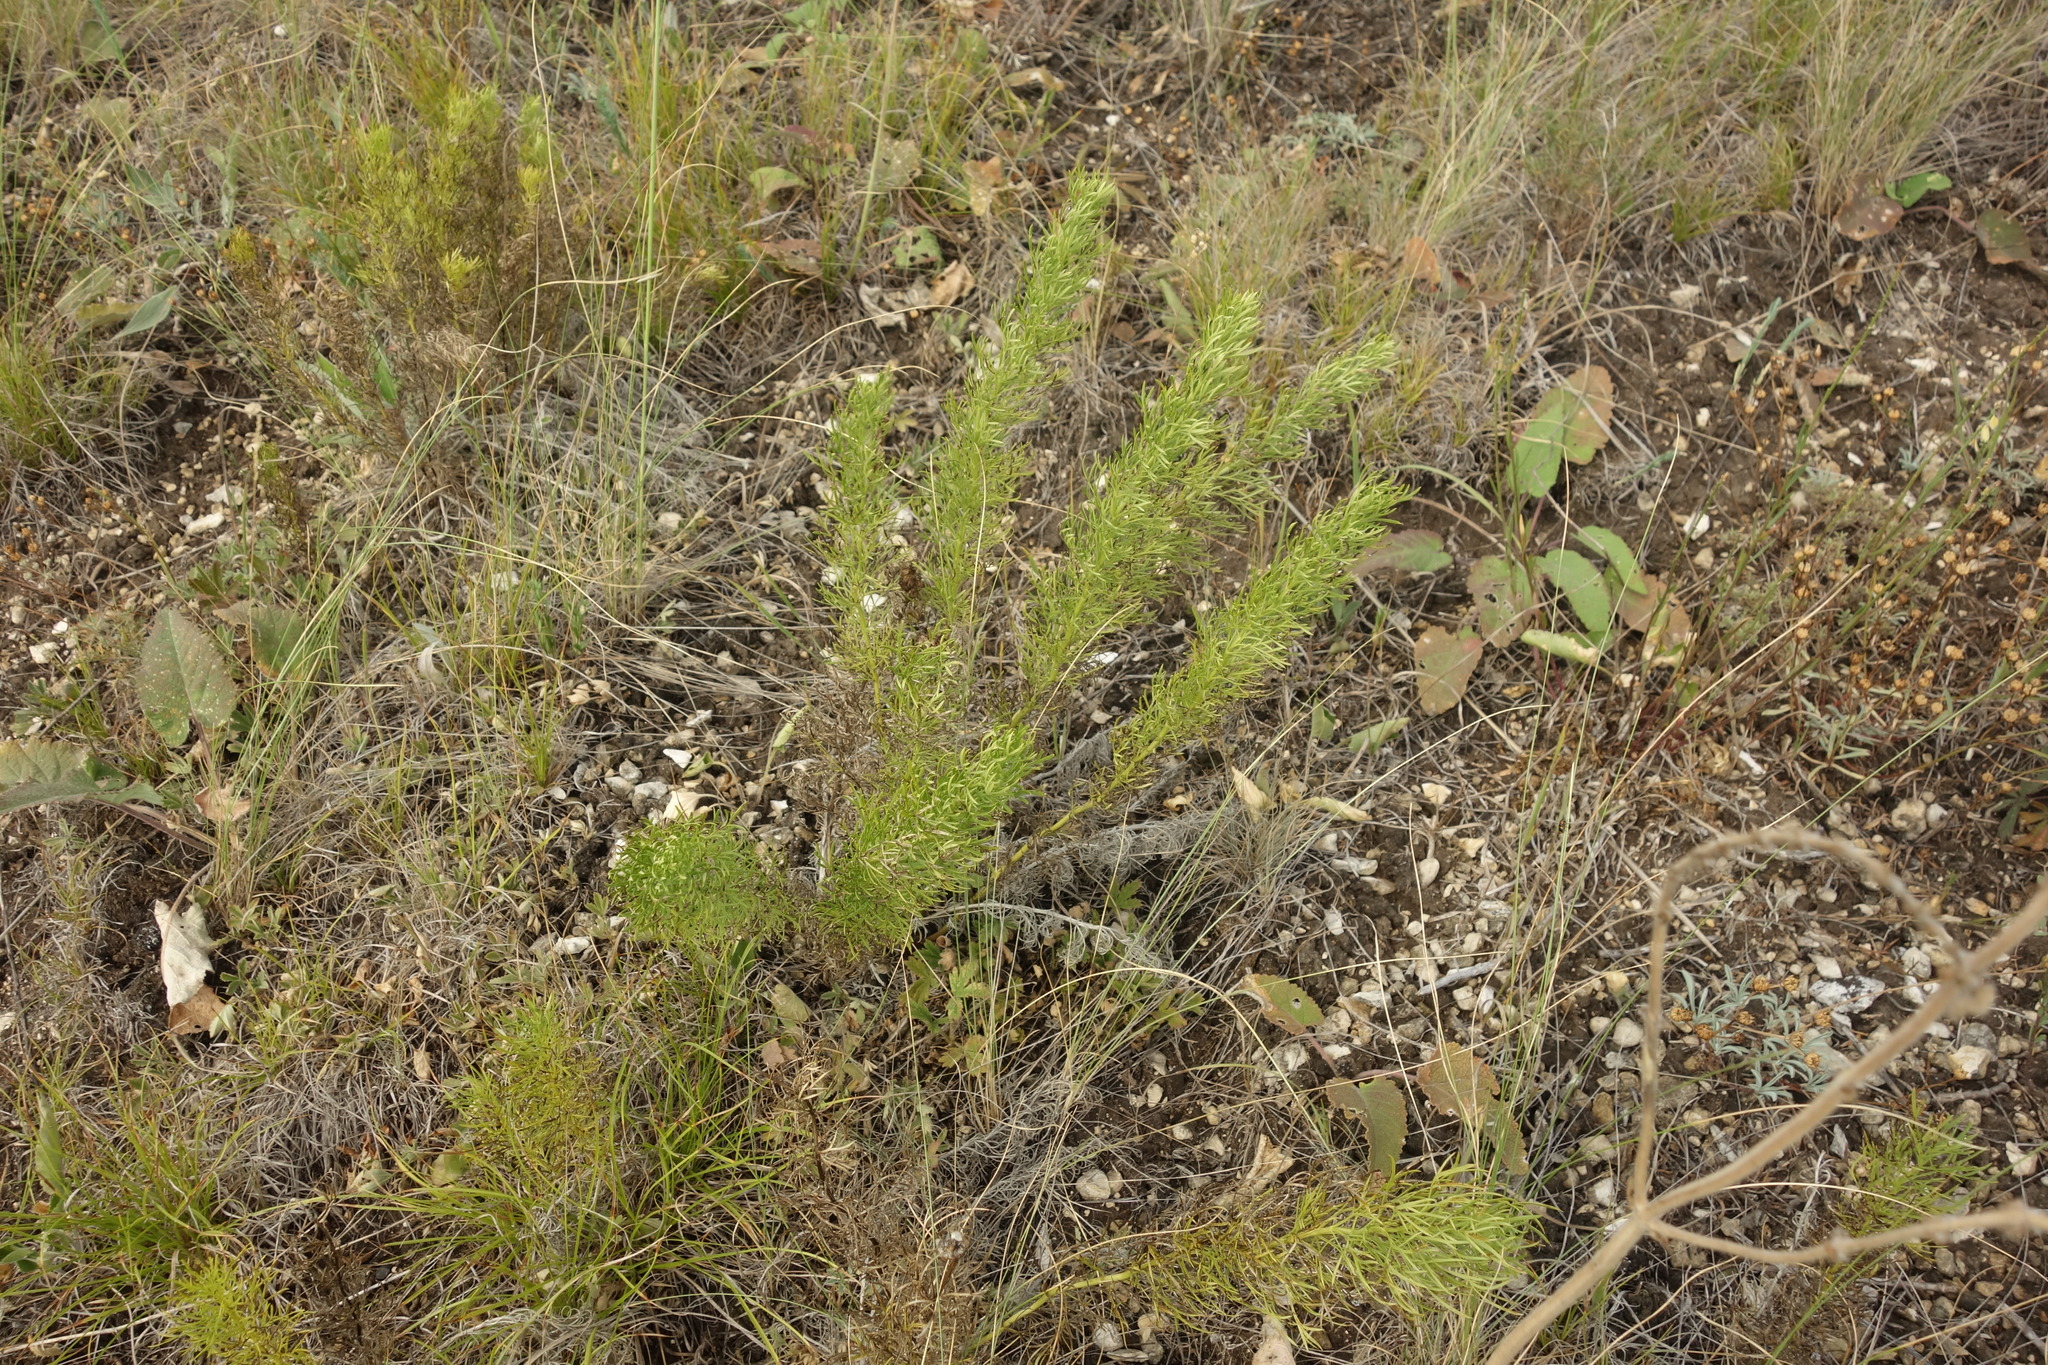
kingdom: Plantae
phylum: Tracheophyta
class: Magnoliopsida
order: Ranunculales
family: Ranunculaceae
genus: Adonis
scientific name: Adonis vernalis
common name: Yellow pheasants-eye
